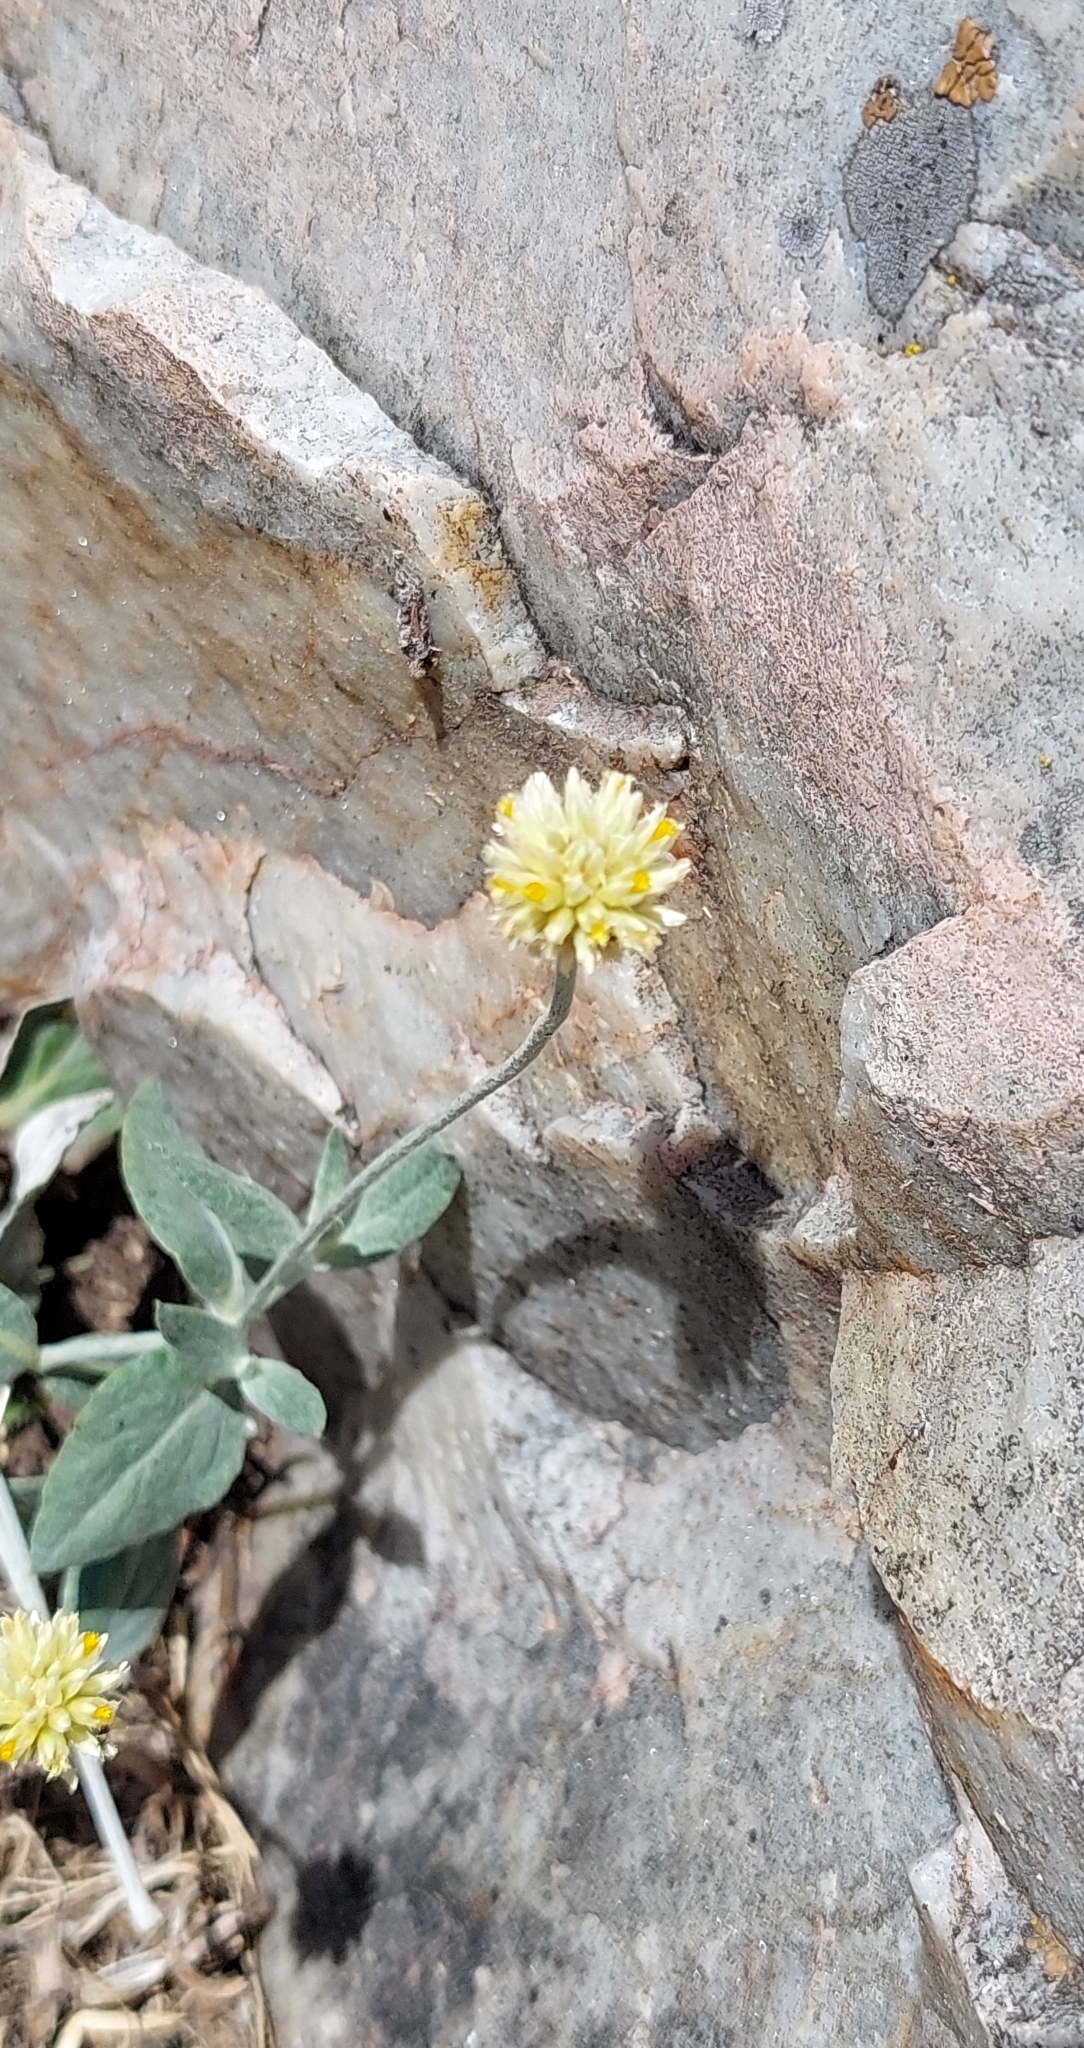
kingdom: Plantae
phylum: Tracheophyta
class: Magnoliopsida
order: Caryophyllales
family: Amaranthaceae
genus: Pfaffia
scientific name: Pfaffia gnaphalioides
